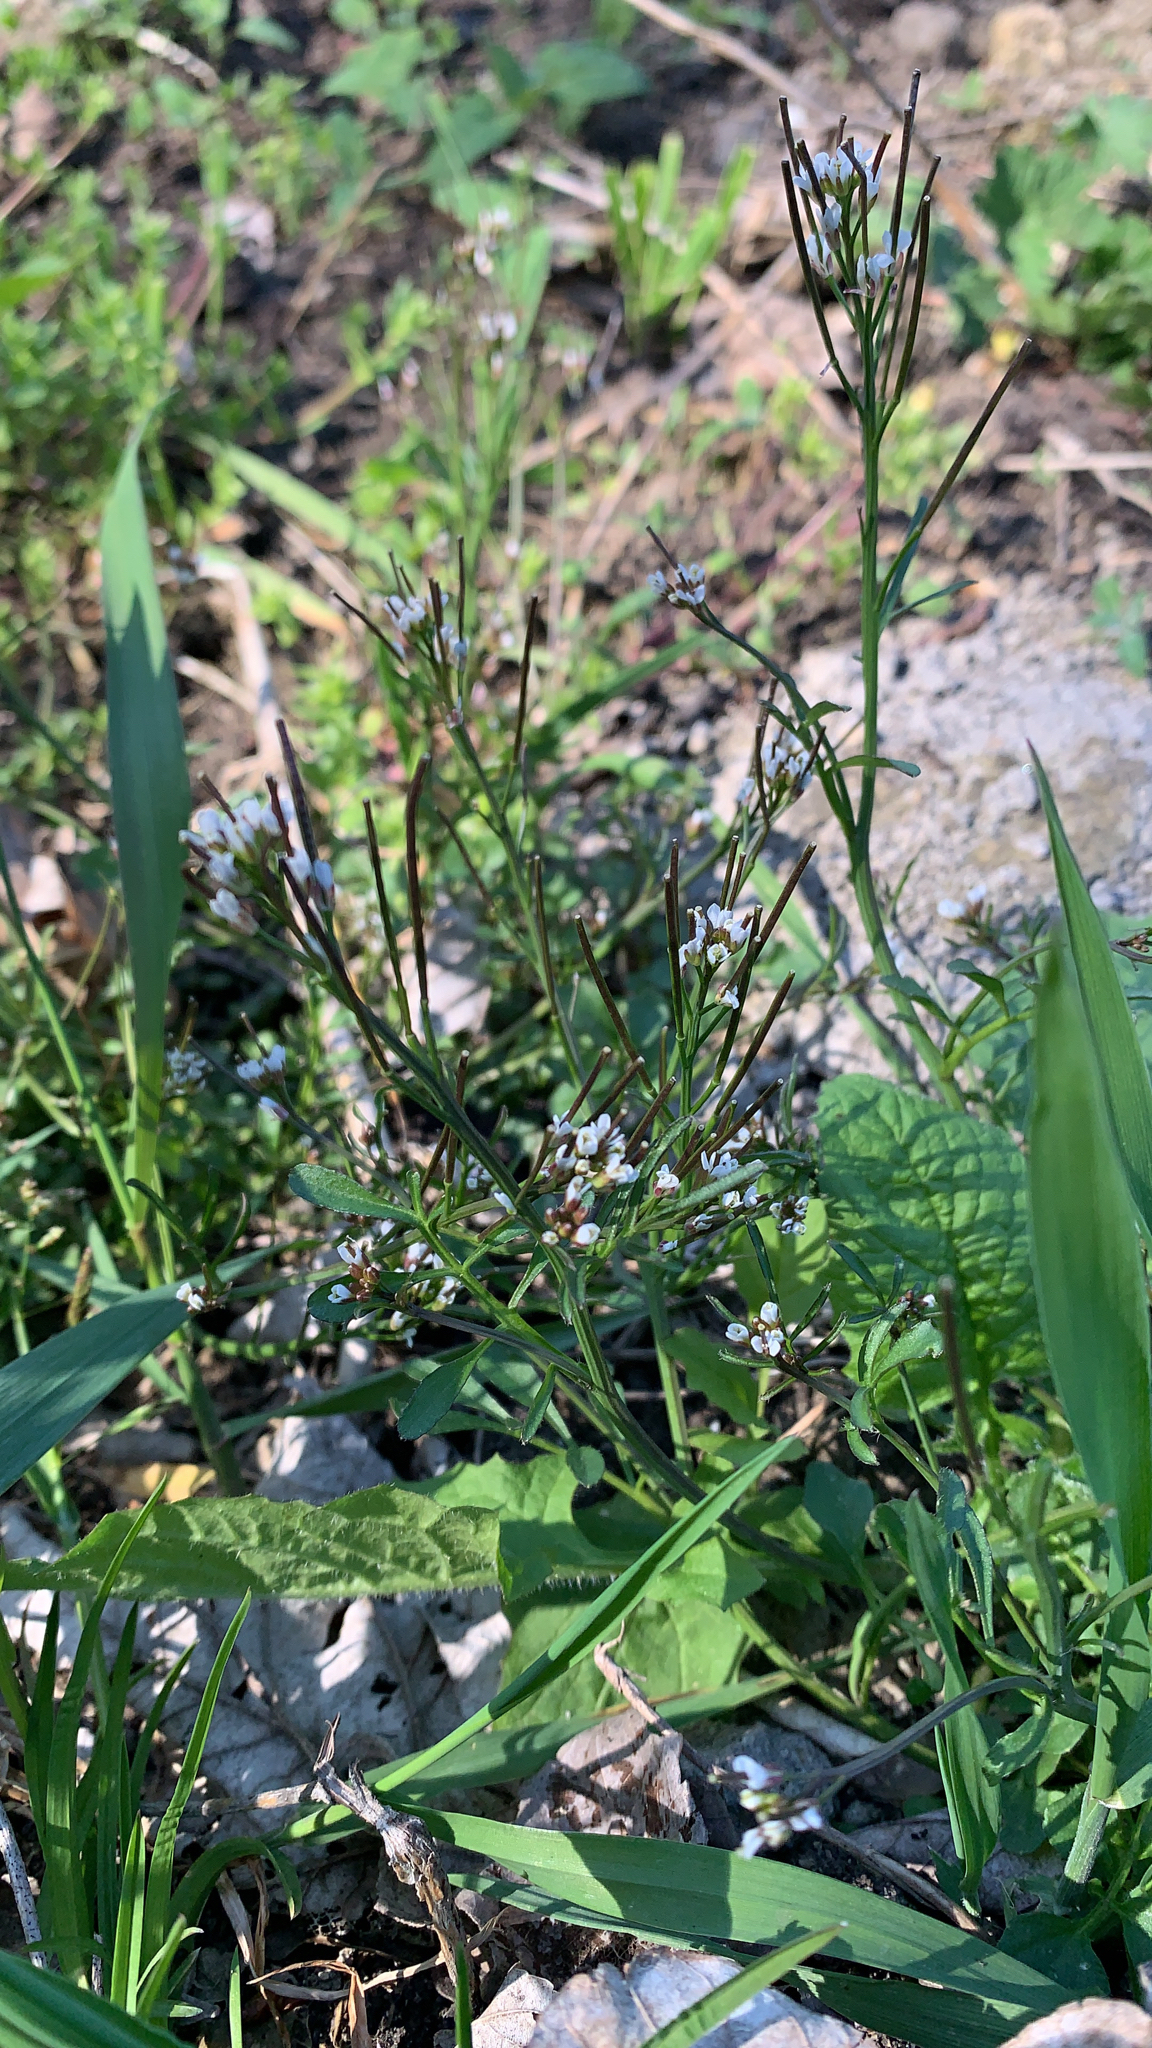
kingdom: Plantae
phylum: Tracheophyta
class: Magnoliopsida
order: Brassicales
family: Brassicaceae
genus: Cardamine
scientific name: Cardamine hirsuta
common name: Hairy bittercress
